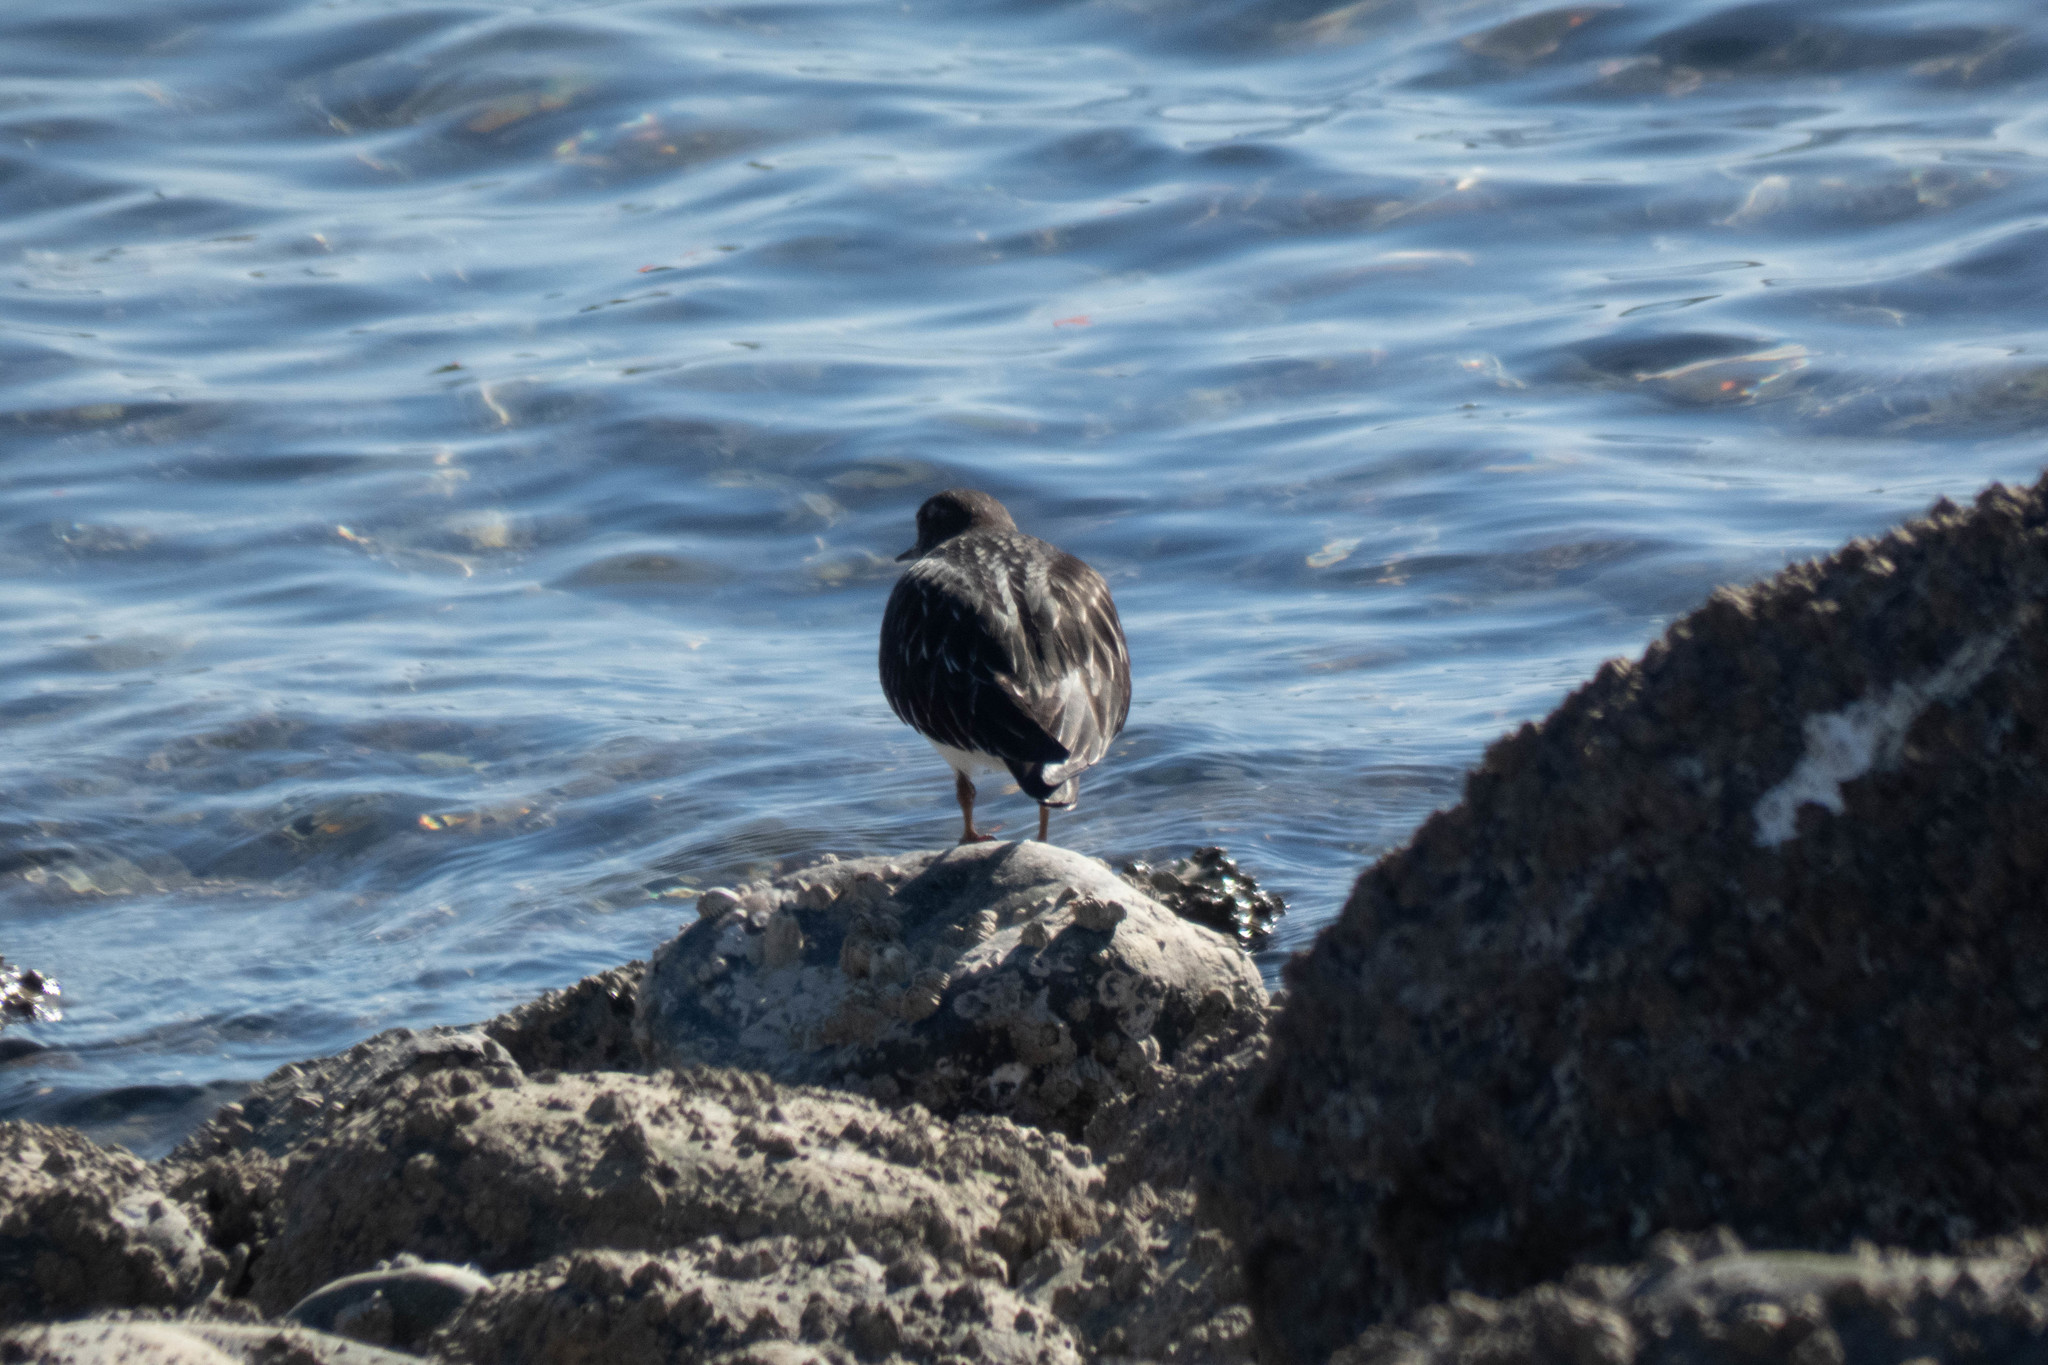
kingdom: Animalia
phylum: Chordata
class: Aves
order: Charadriiformes
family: Scolopacidae
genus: Arenaria
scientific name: Arenaria melanocephala
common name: Black turnstone
